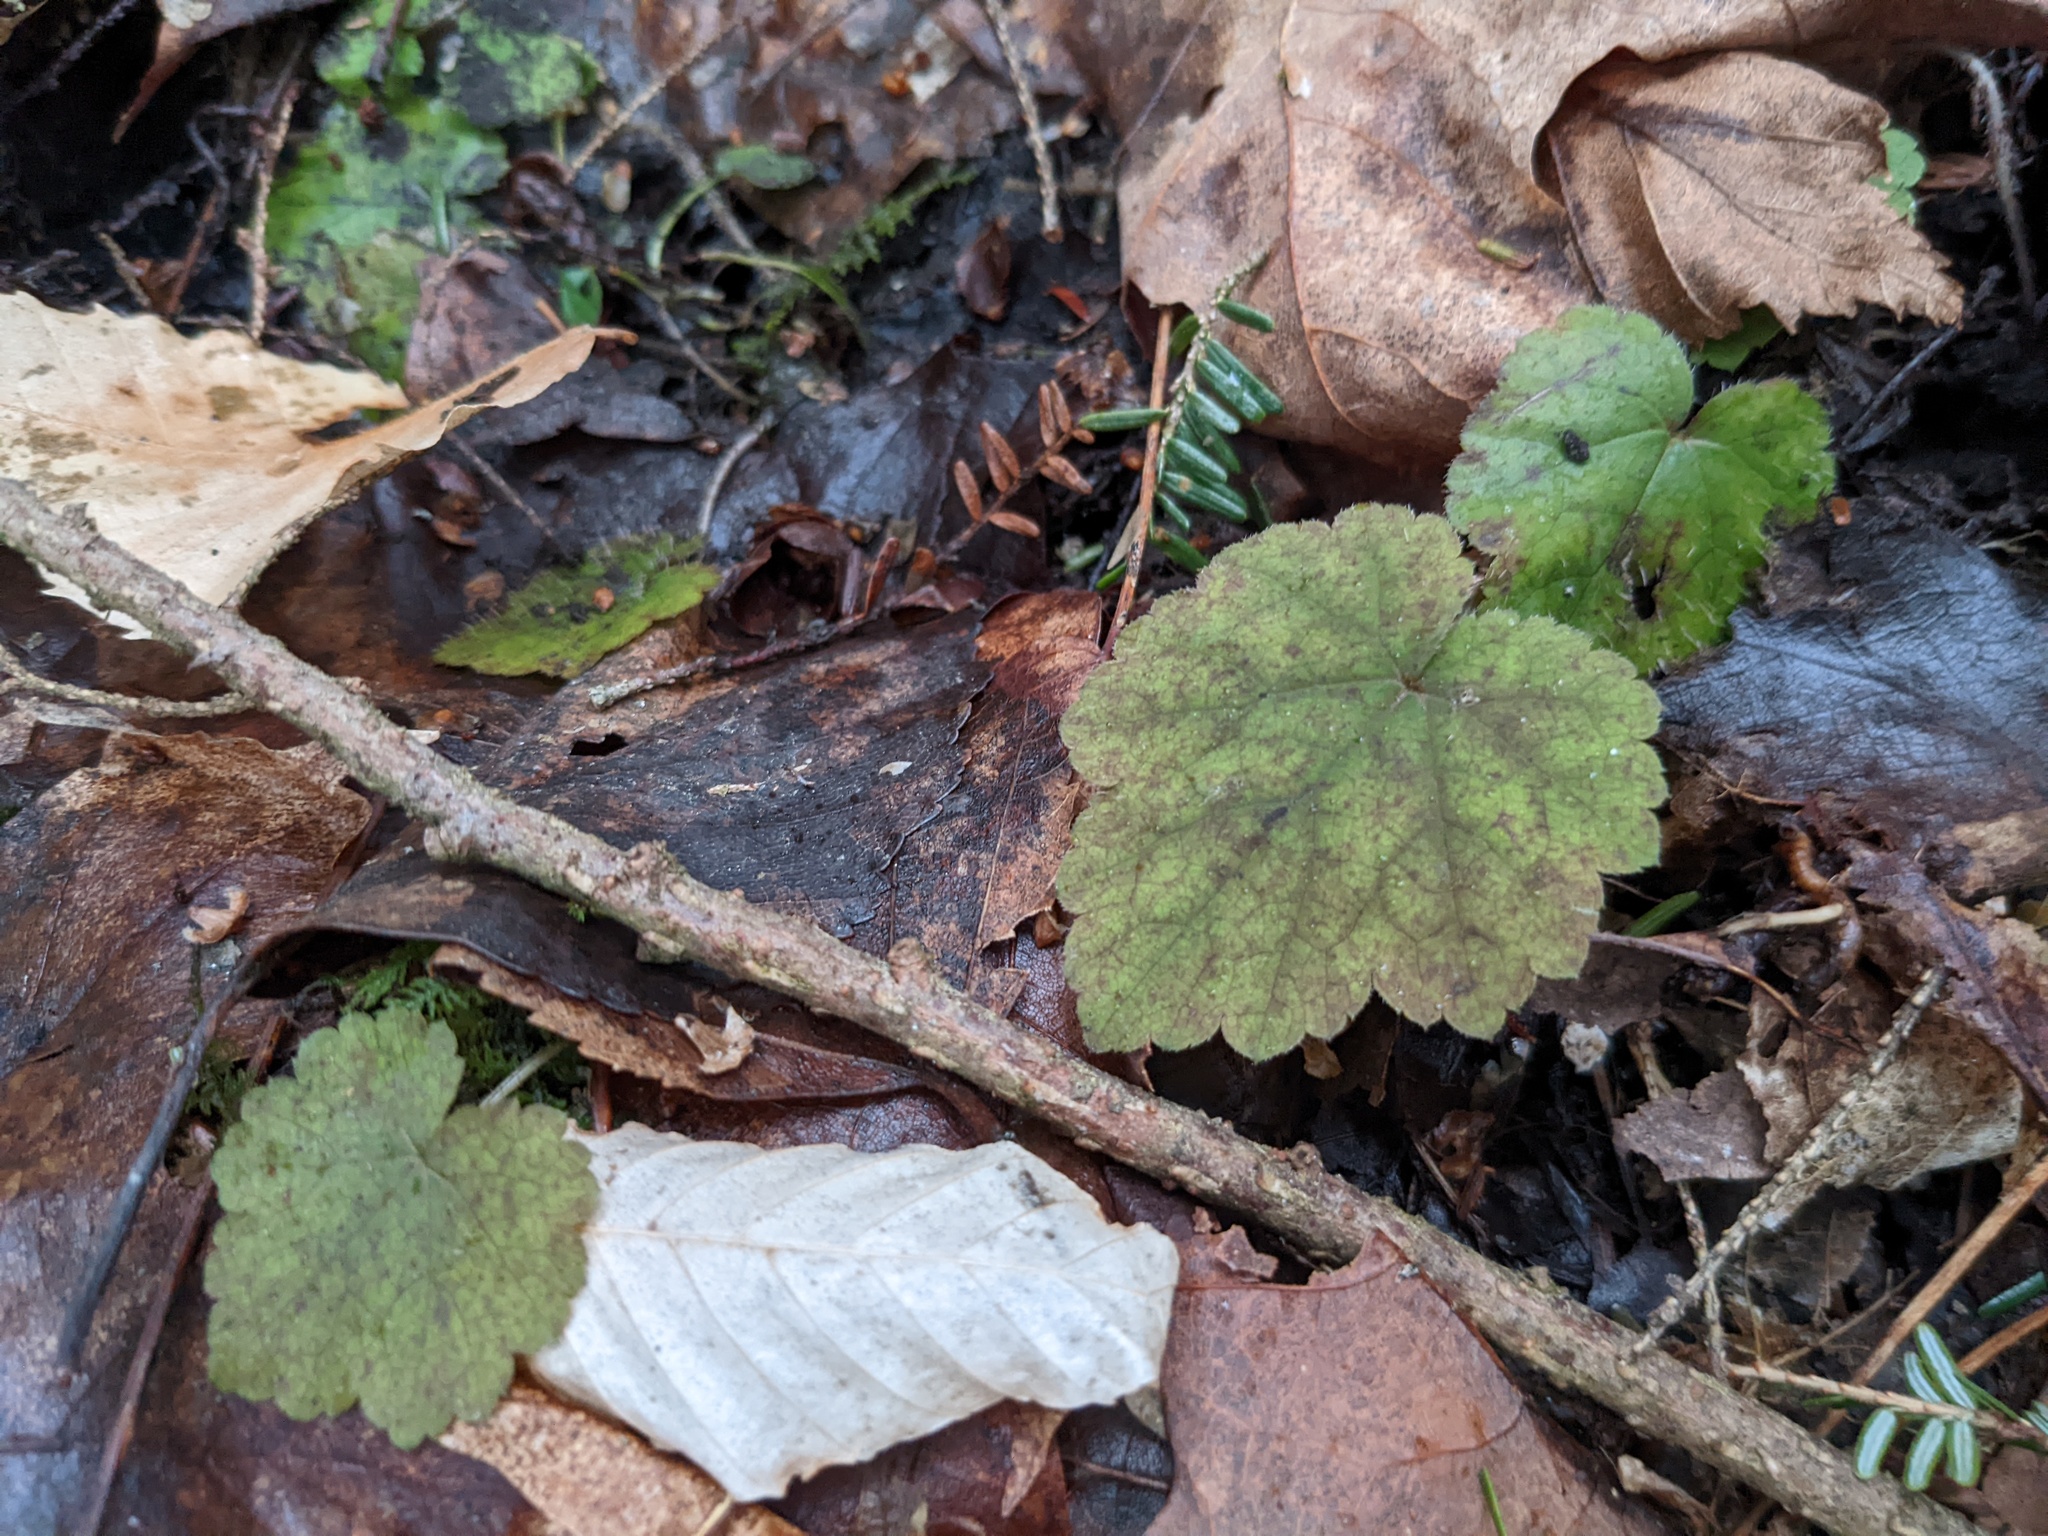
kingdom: Plantae
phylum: Tracheophyta
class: Magnoliopsida
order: Saxifragales
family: Saxifragaceae
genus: Tiarella
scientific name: Tiarella stolonifera
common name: Stoloniferous foamflower
